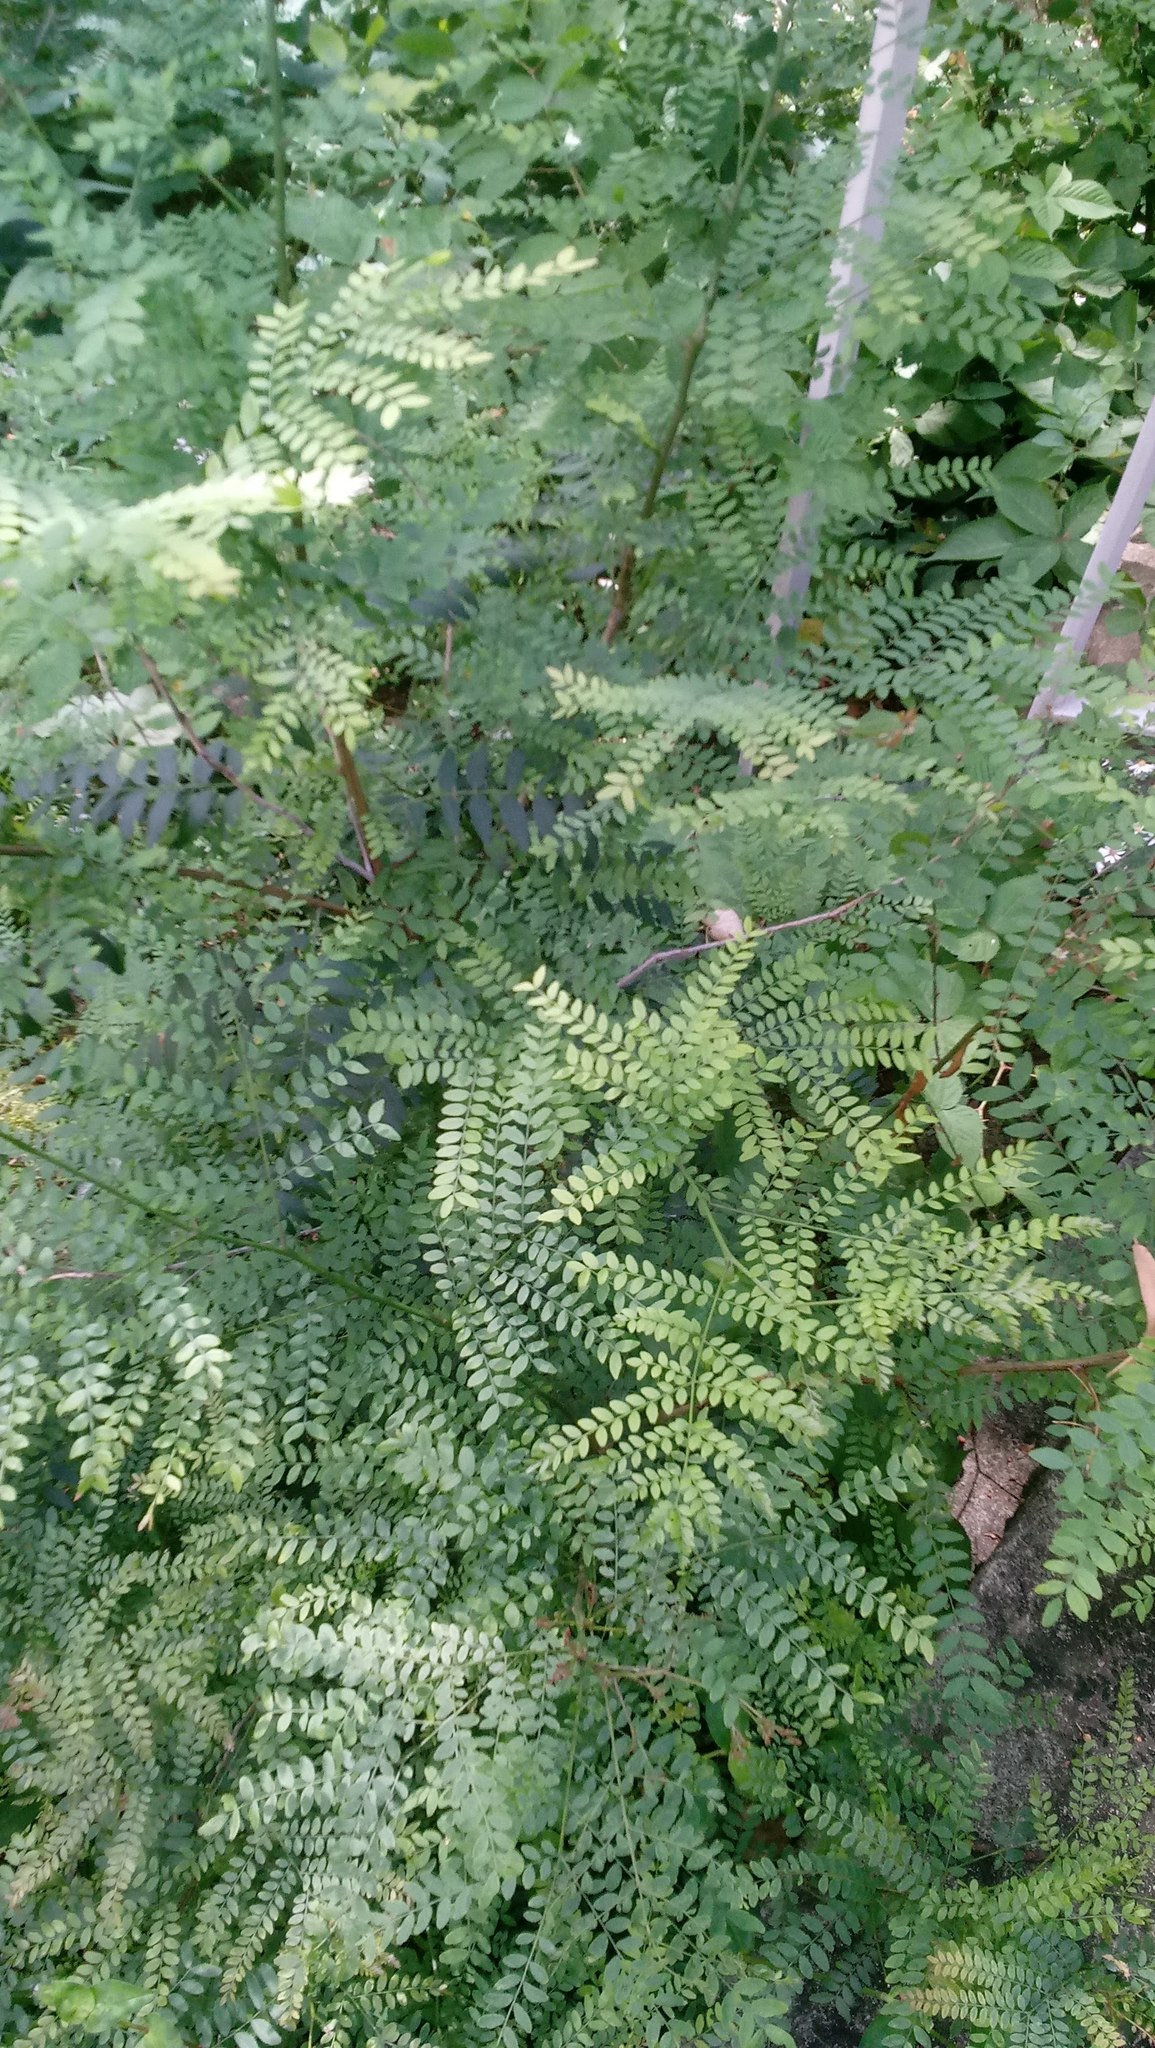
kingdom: Plantae
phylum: Tracheophyta
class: Magnoliopsida
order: Fabales
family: Fabaceae
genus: Gleditsia
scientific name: Gleditsia triacanthos
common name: Common honeylocust
